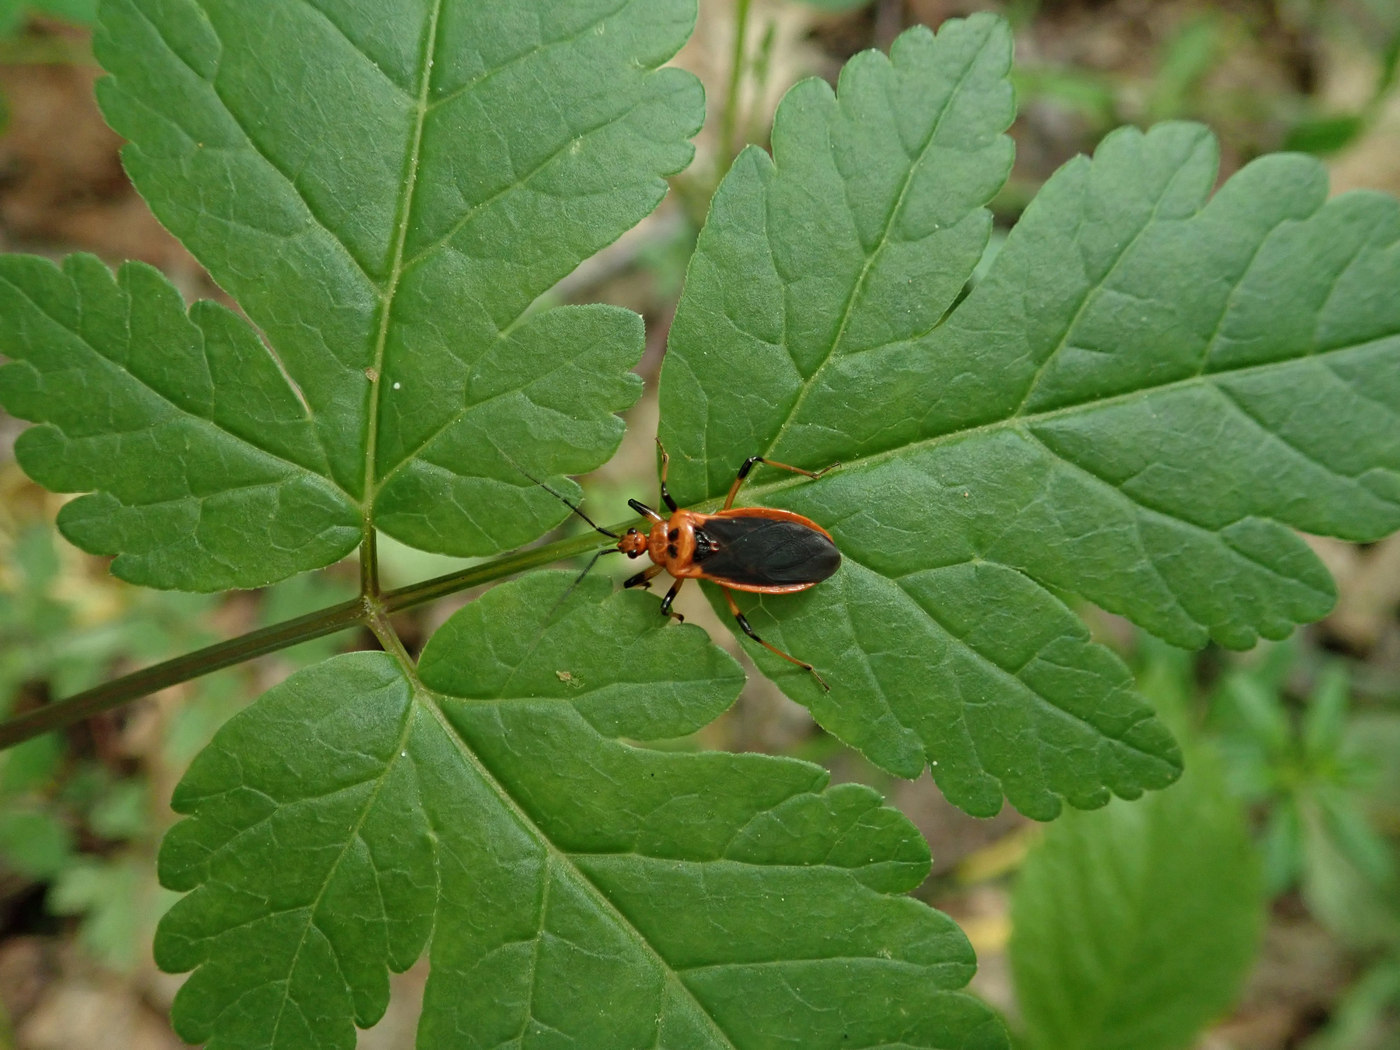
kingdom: Animalia
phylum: Arthropoda
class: Insecta
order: Hemiptera
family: Reduviidae
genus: Rhiginia
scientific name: Rhiginia cruciata
